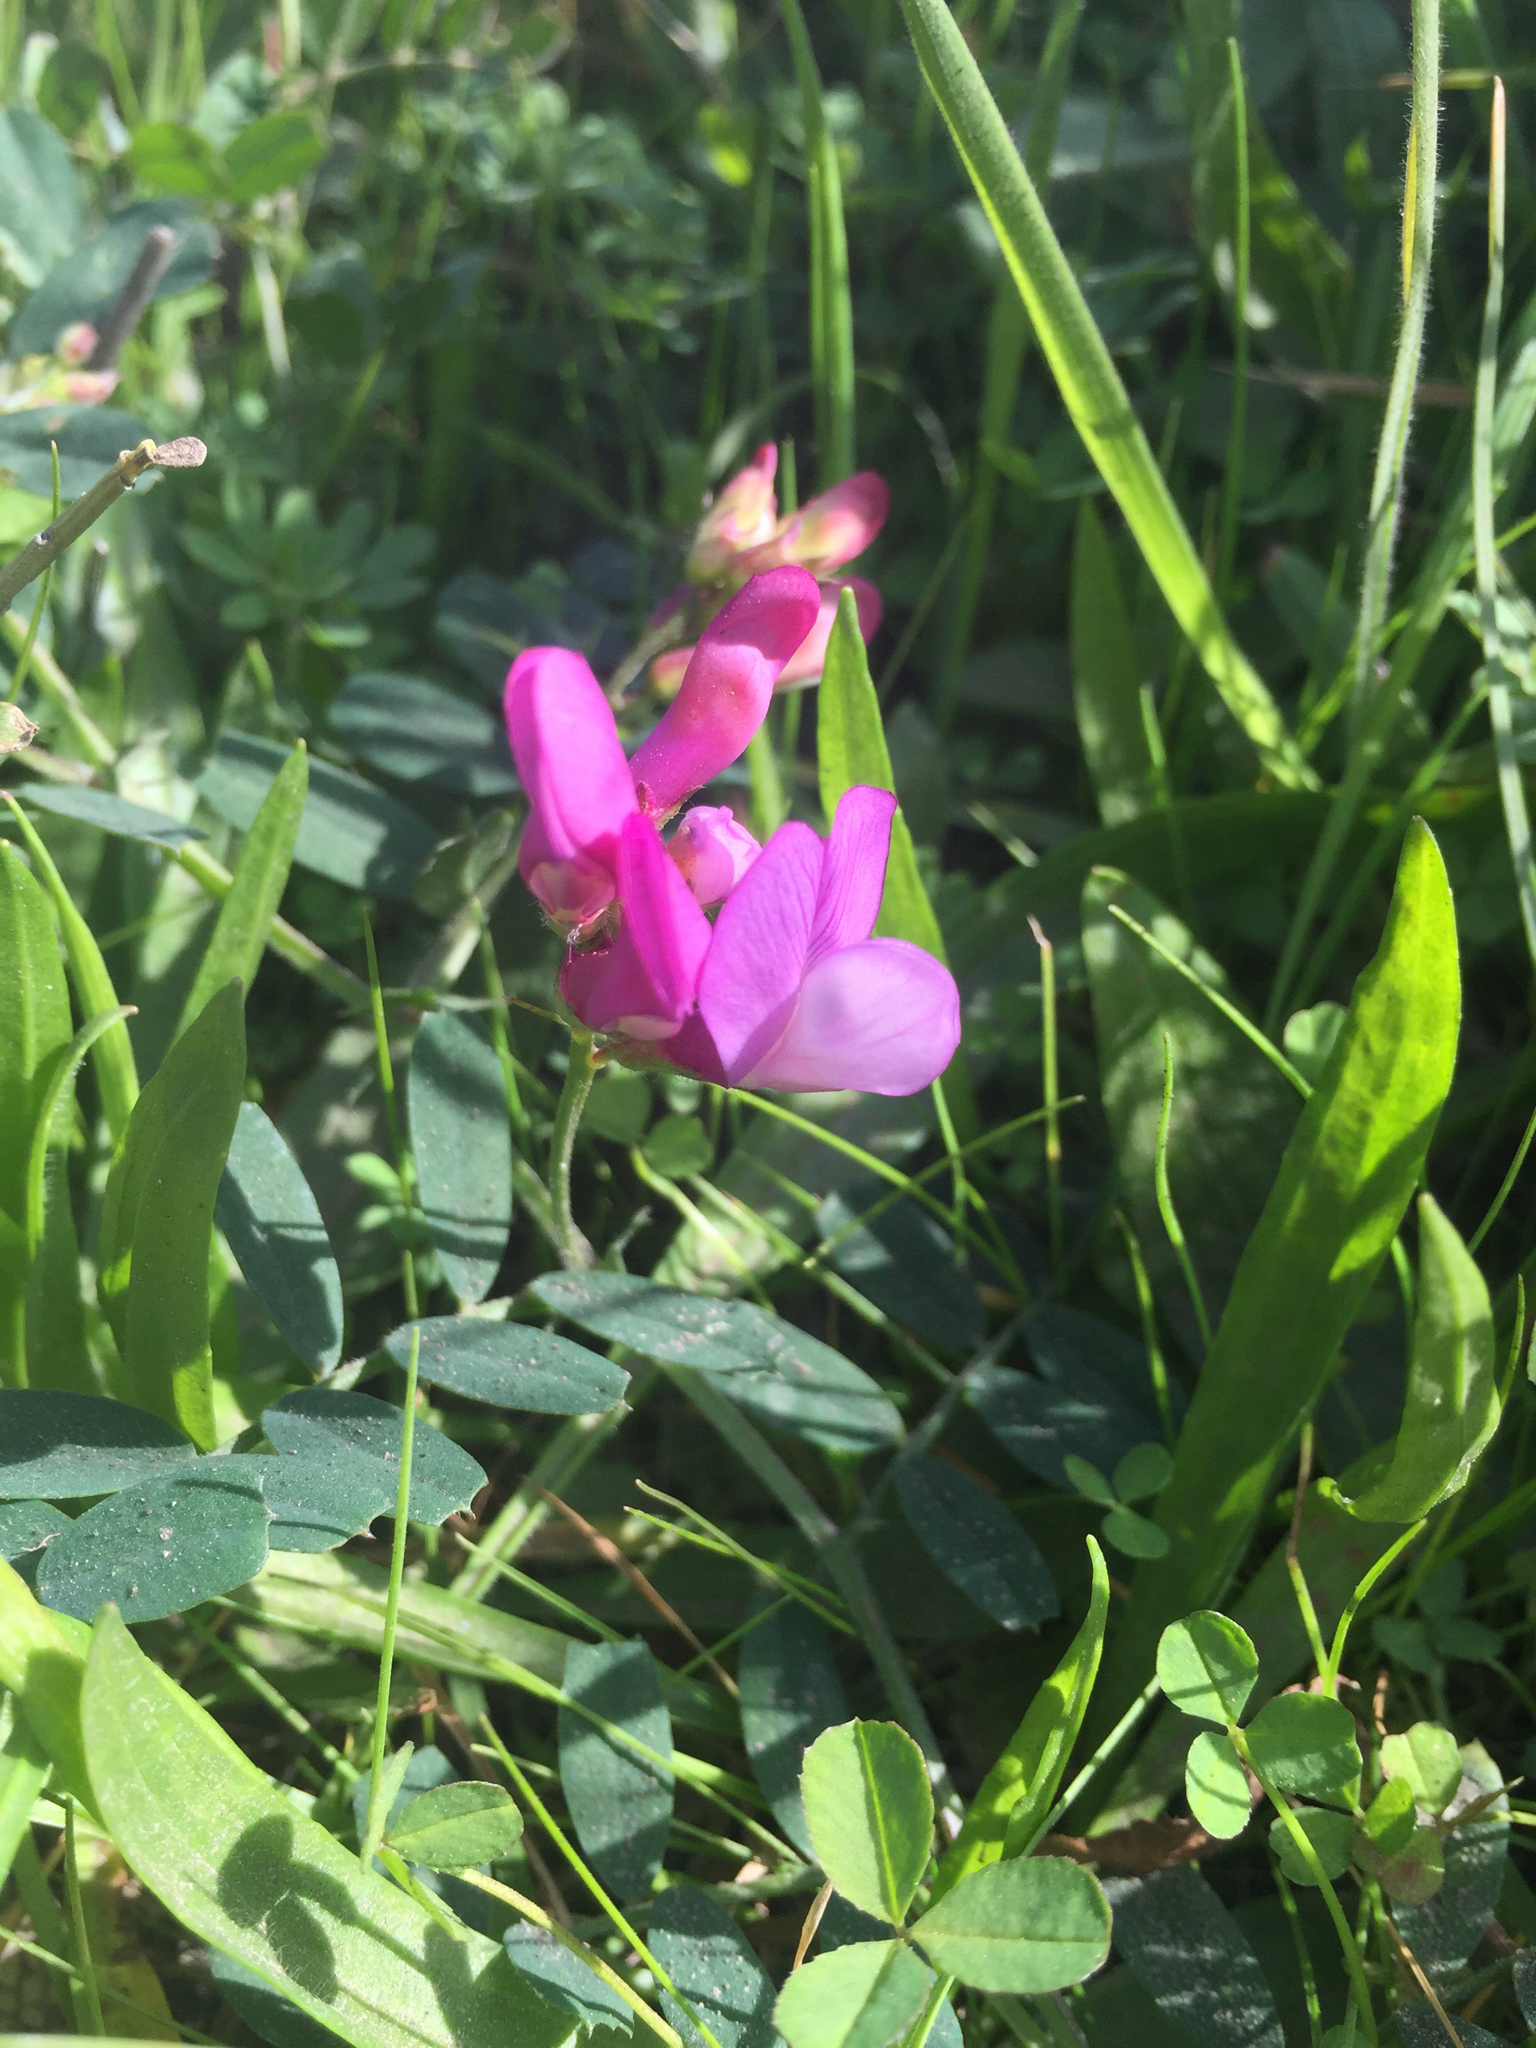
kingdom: Plantae
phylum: Tracheophyta
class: Magnoliopsida
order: Fabales
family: Fabaceae
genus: Lathyrus
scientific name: Lathyrus vestitus
